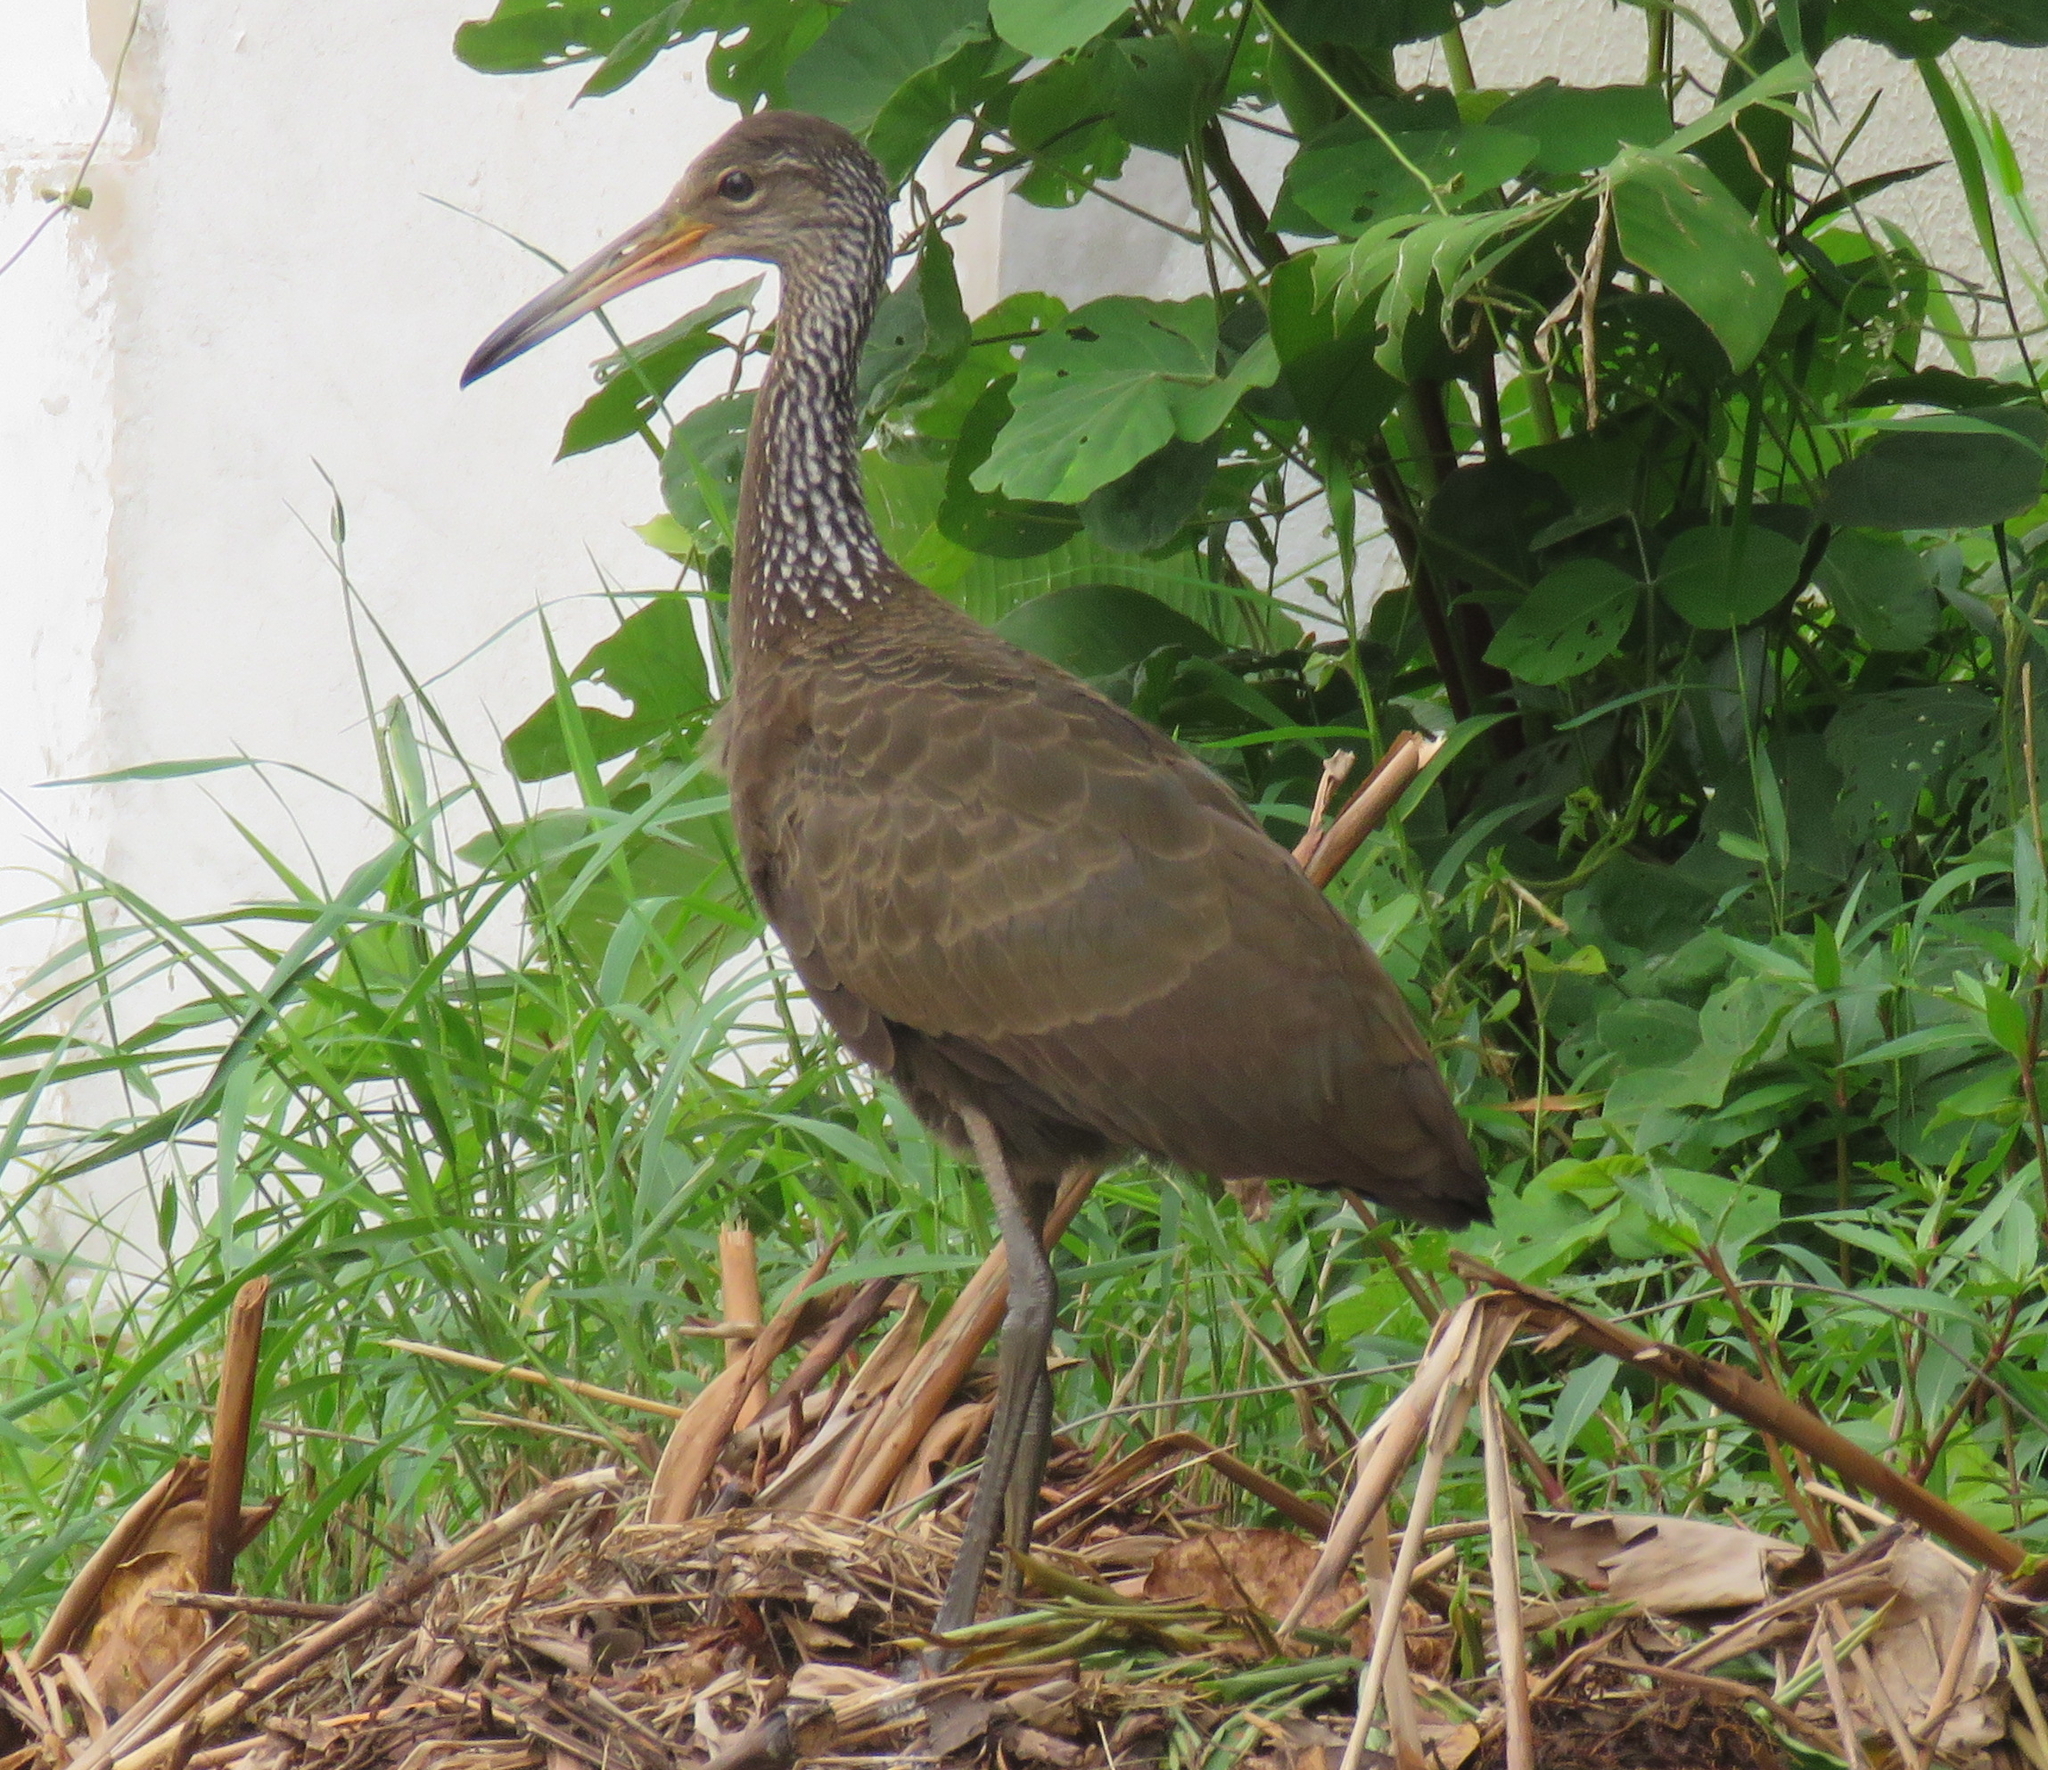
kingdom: Animalia
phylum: Chordata
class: Aves
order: Gruiformes
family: Aramidae
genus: Aramus
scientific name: Aramus guarauna
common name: Limpkin
